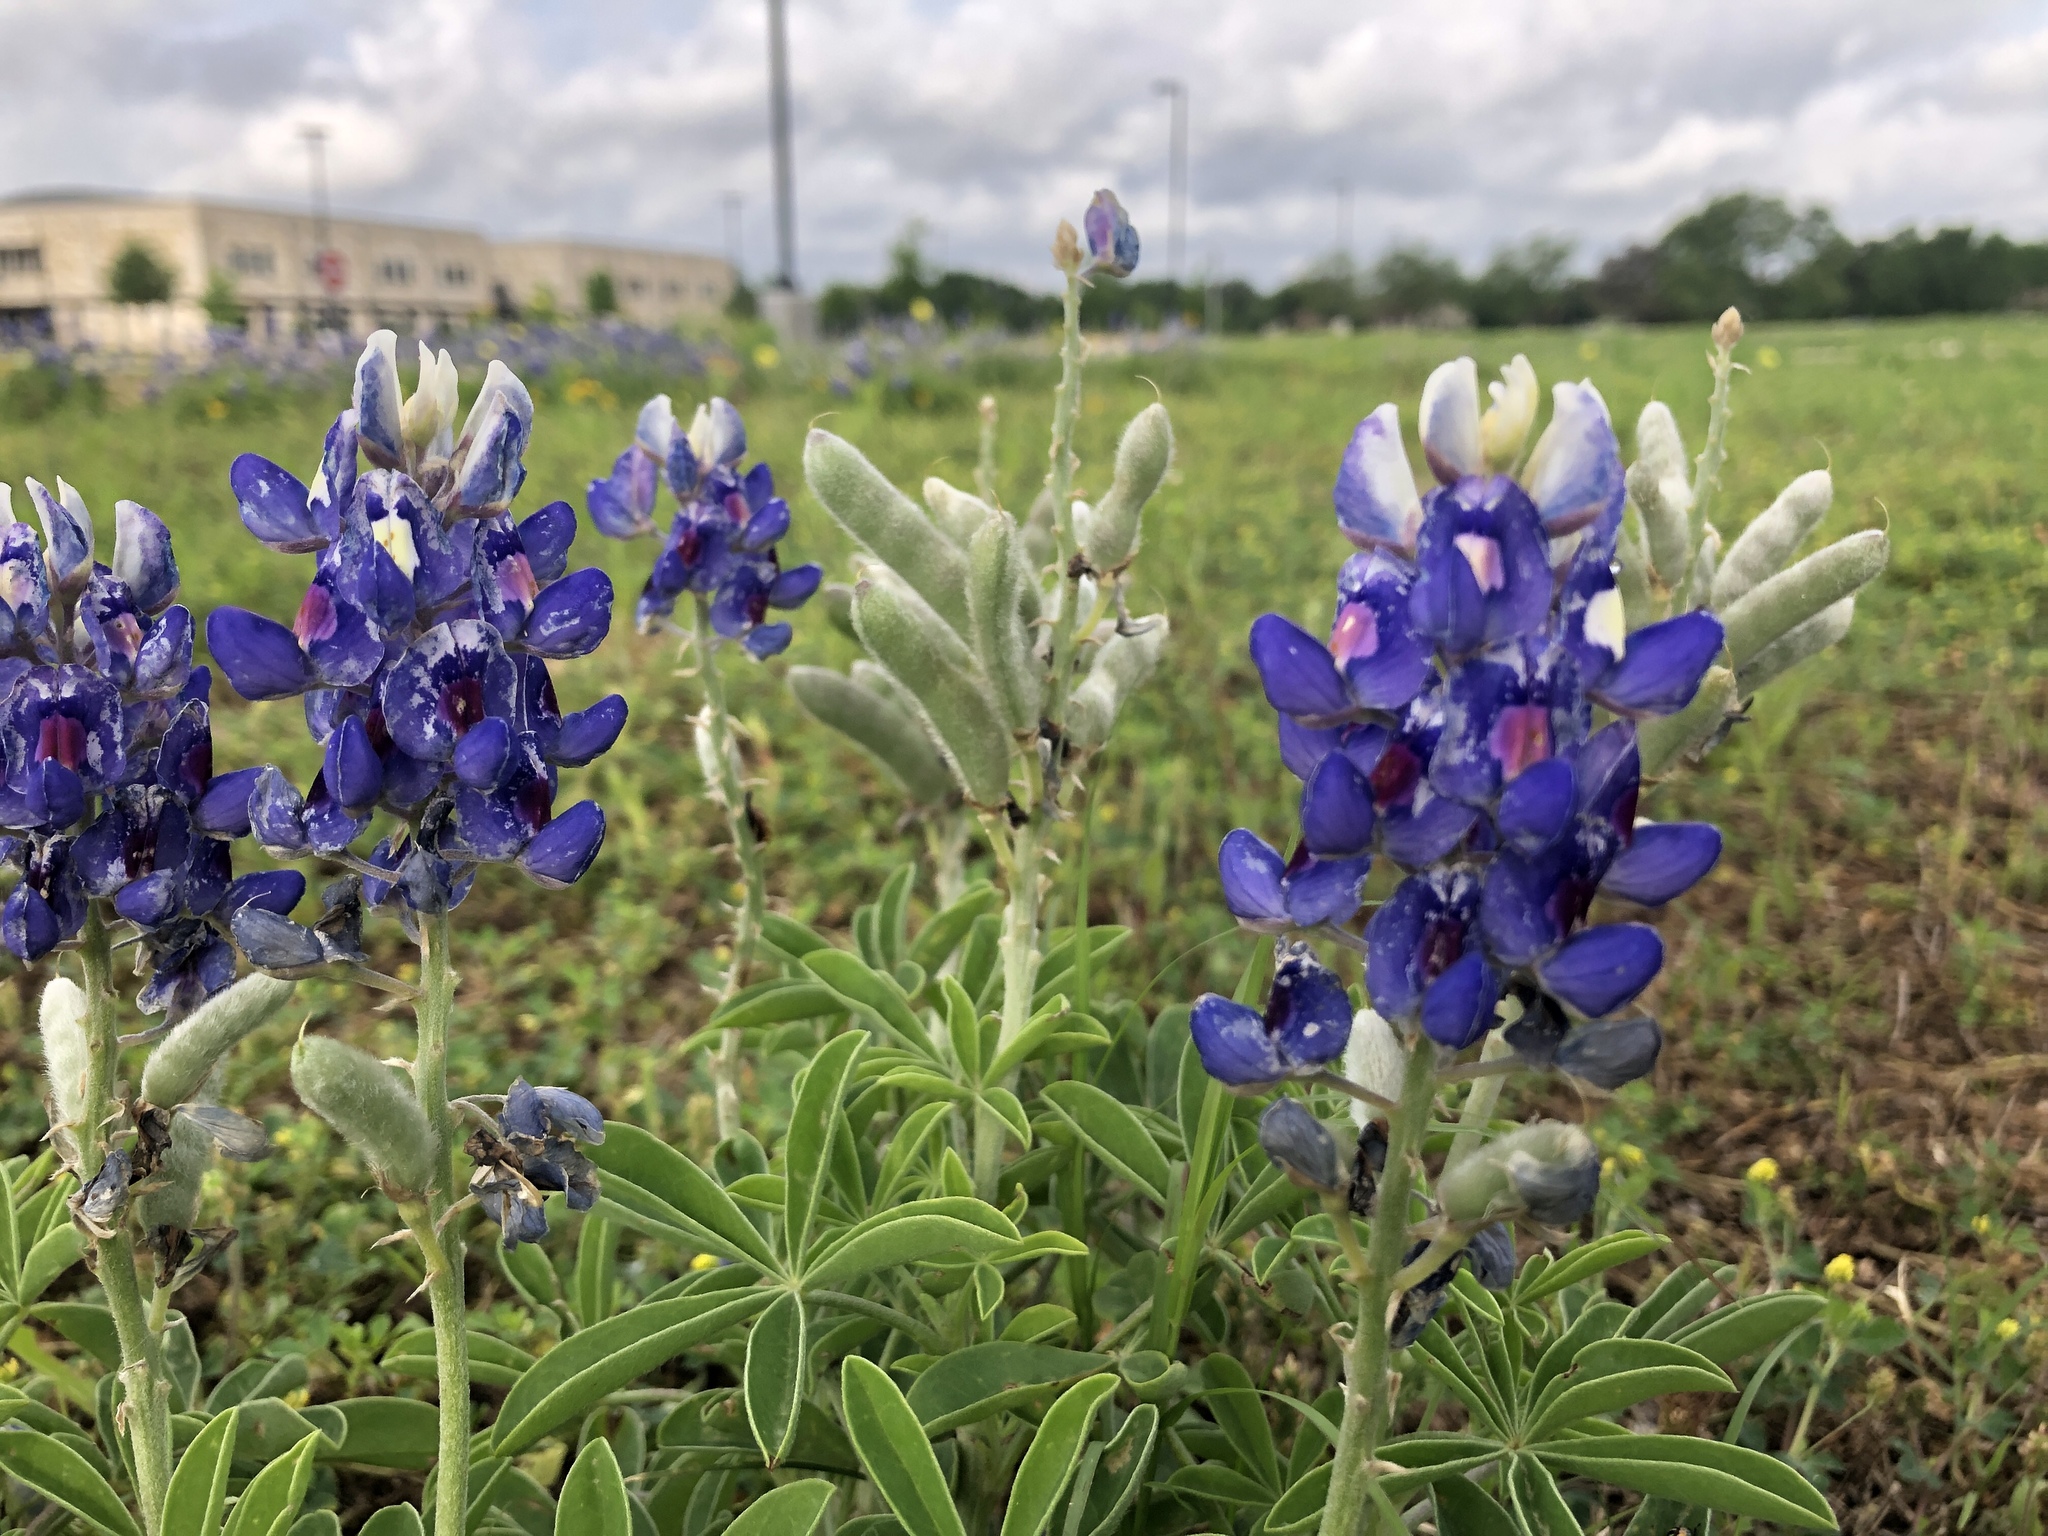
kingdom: Plantae
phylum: Tracheophyta
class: Magnoliopsida
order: Fabales
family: Fabaceae
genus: Lupinus
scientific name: Lupinus texensis
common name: Texas bluebonnet
